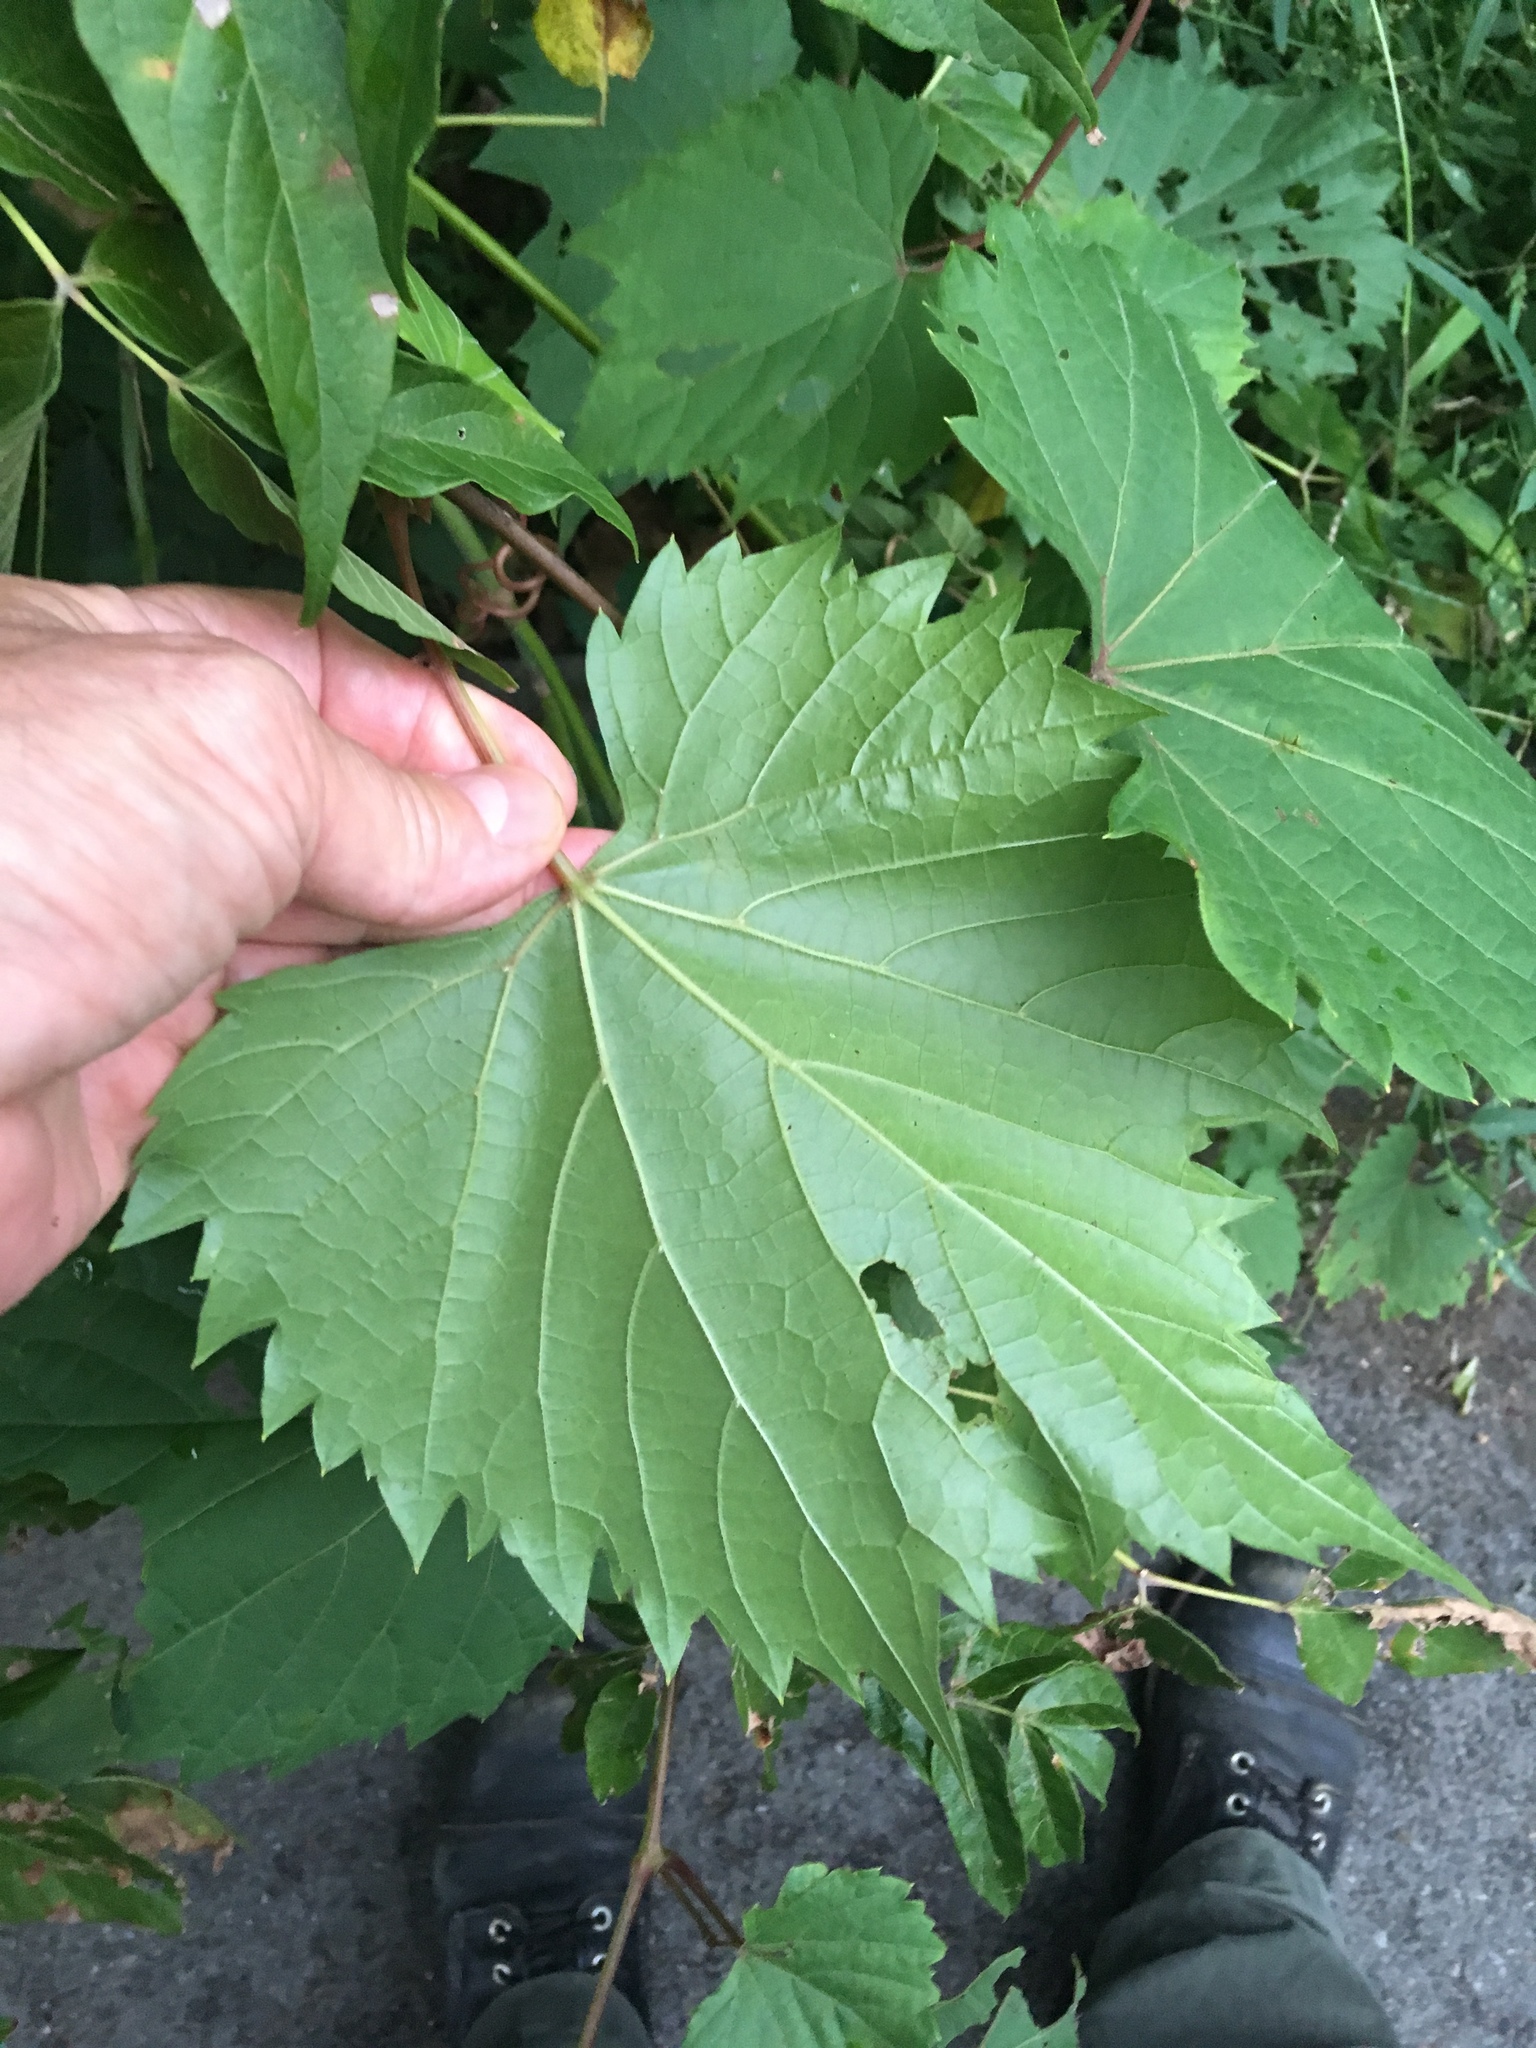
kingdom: Plantae
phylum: Tracheophyta
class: Magnoliopsida
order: Vitales
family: Vitaceae
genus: Vitis
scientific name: Vitis riparia
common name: Frost grape
